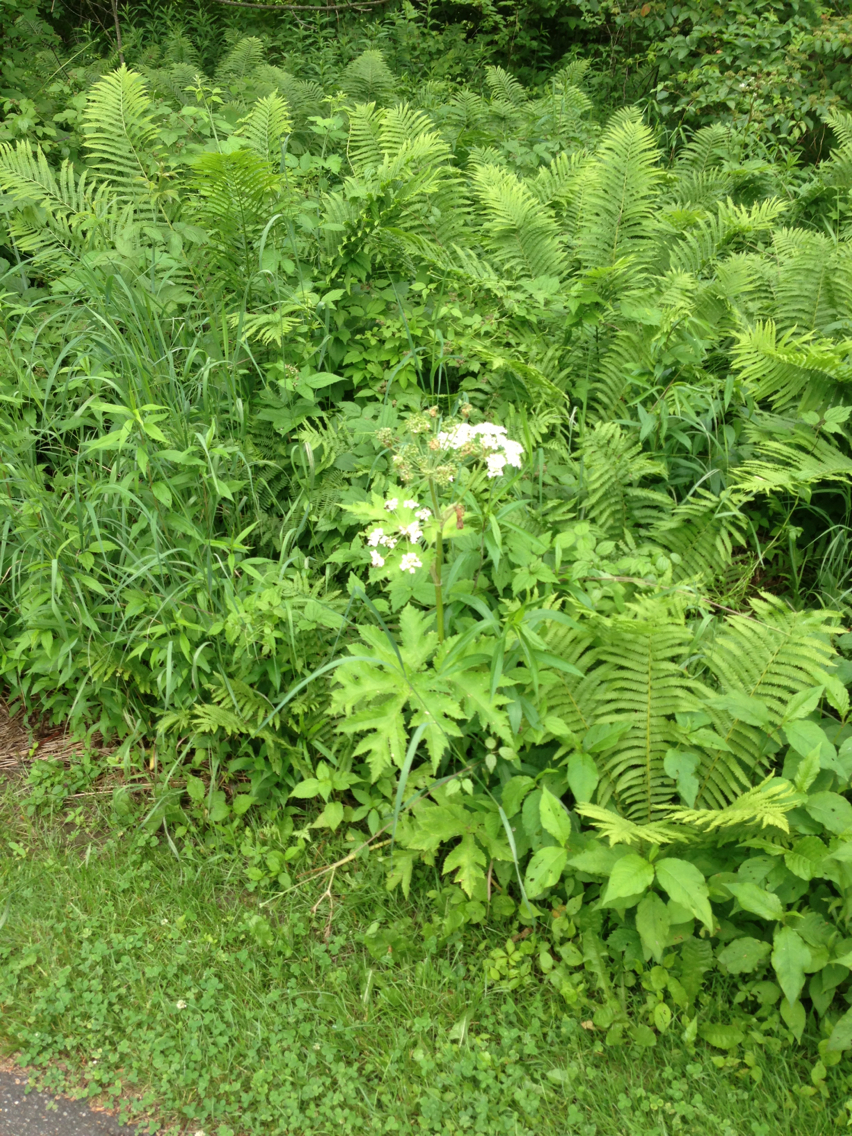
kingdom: Plantae
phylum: Tracheophyta
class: Magnoliopsida
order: Apiales
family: Apiaceae
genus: Heracleum
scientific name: Heracleum maximum
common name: American cow parsnip
